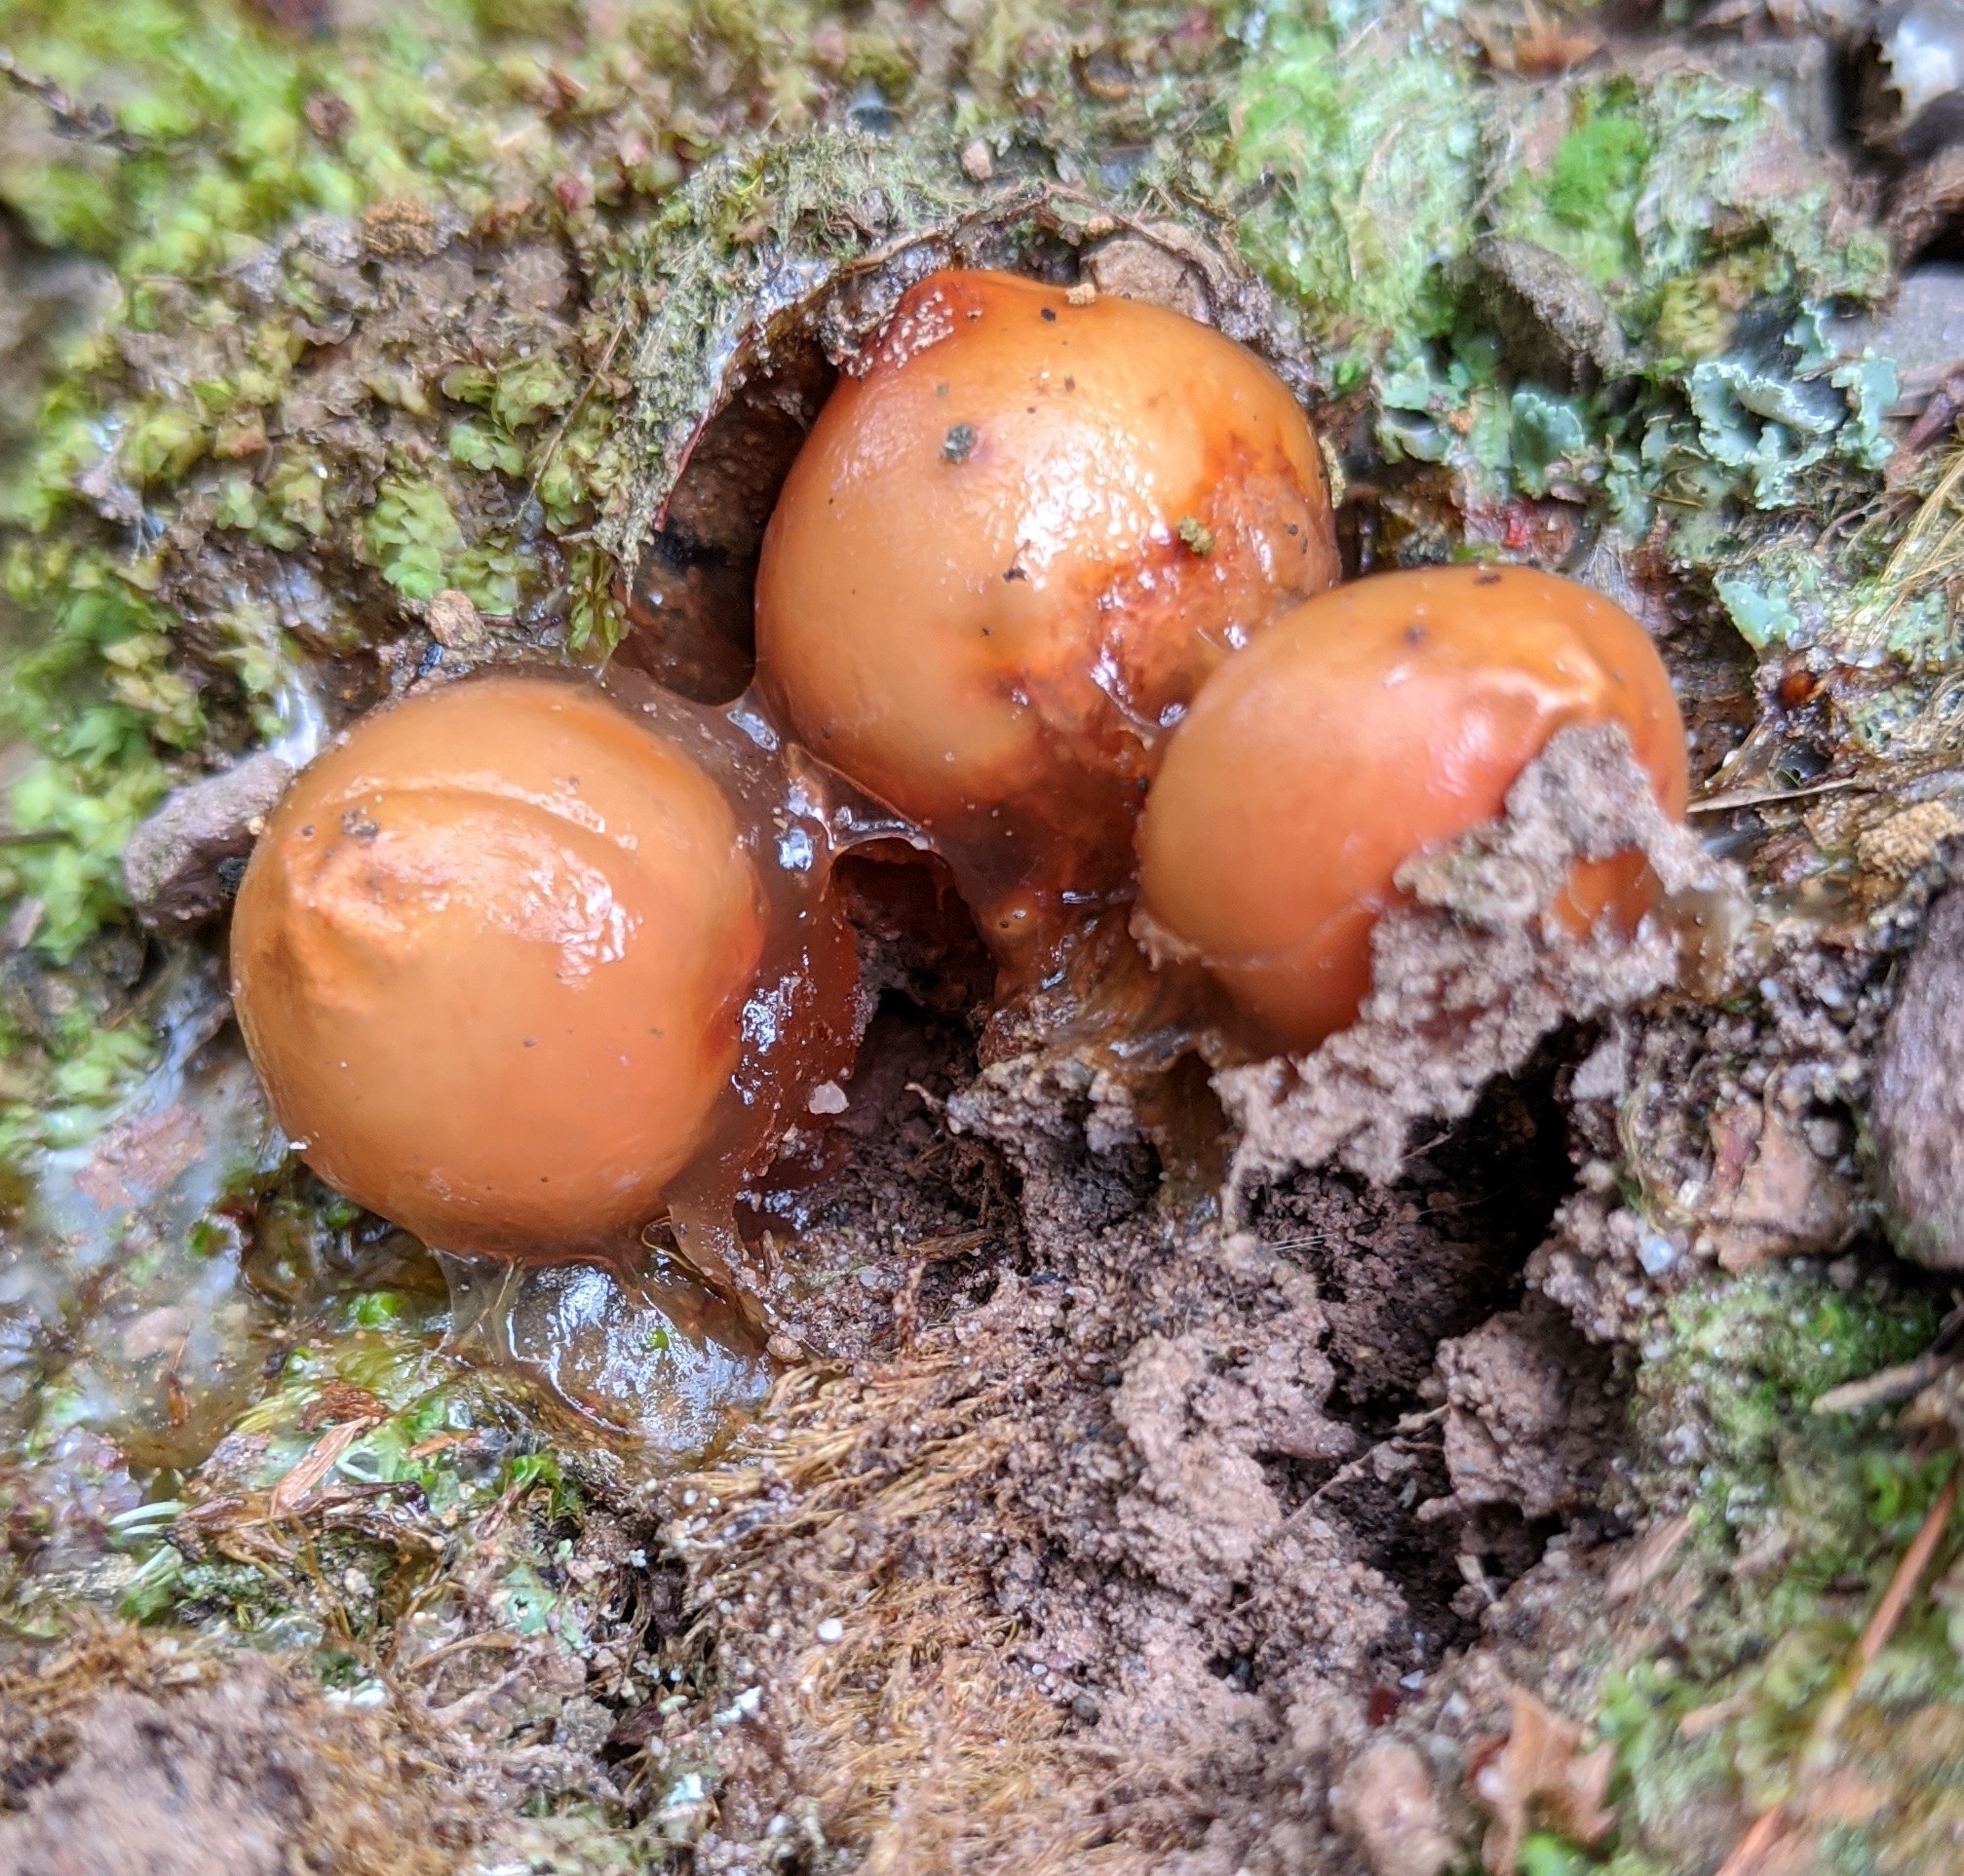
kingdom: Fungi
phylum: Basidiomycota
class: Agaricomycetes
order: Boletales
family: Calostomataceae
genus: Calostoma
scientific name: Calostoma cinnabarinum
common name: Stalked puffball-in-aspic
